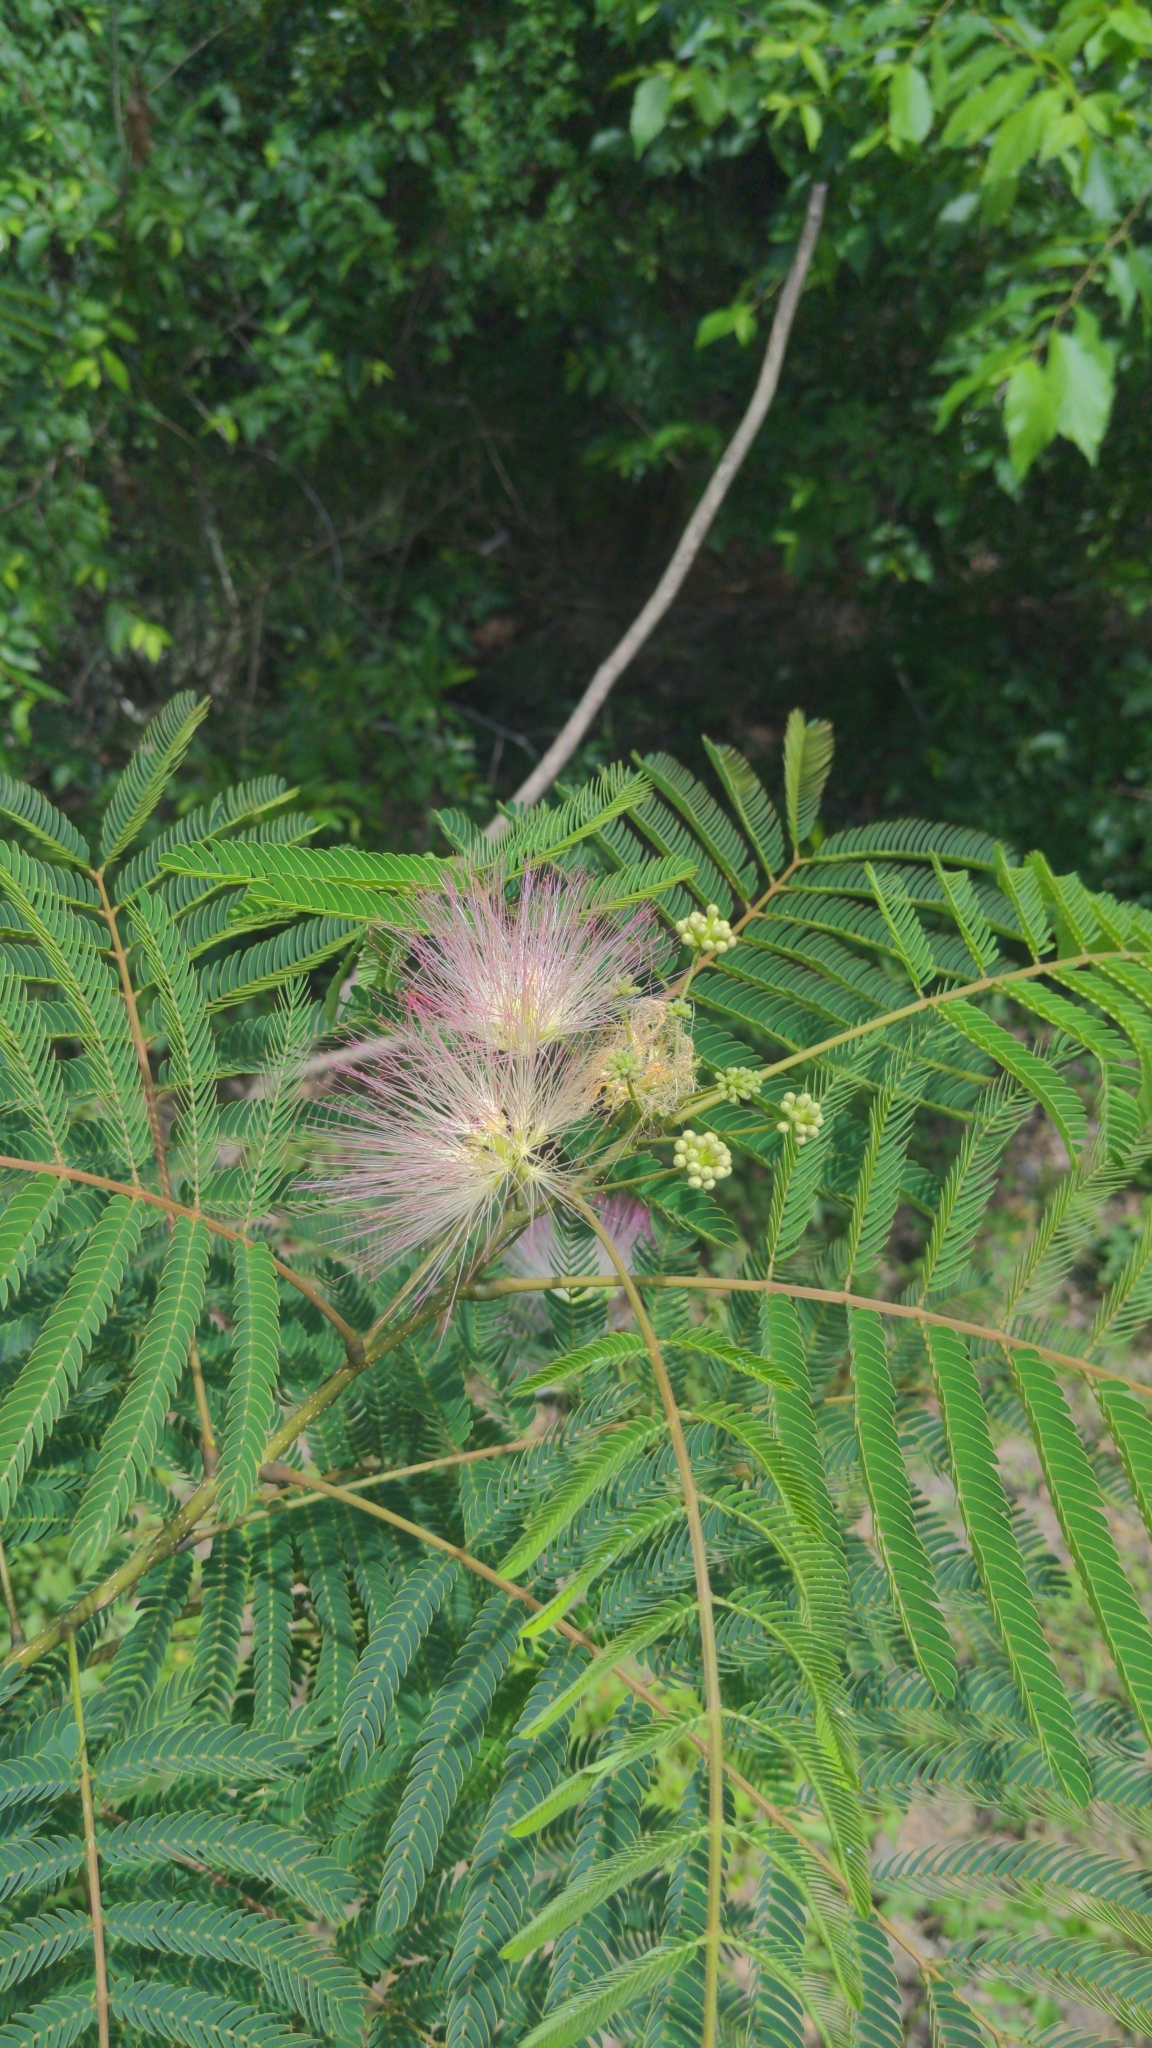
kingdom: Plantae
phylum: Tracheophyta
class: Magnoliopsida
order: Fabales
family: Fabaceae
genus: Albizia
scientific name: Albizia julibrissin
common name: Silktree
